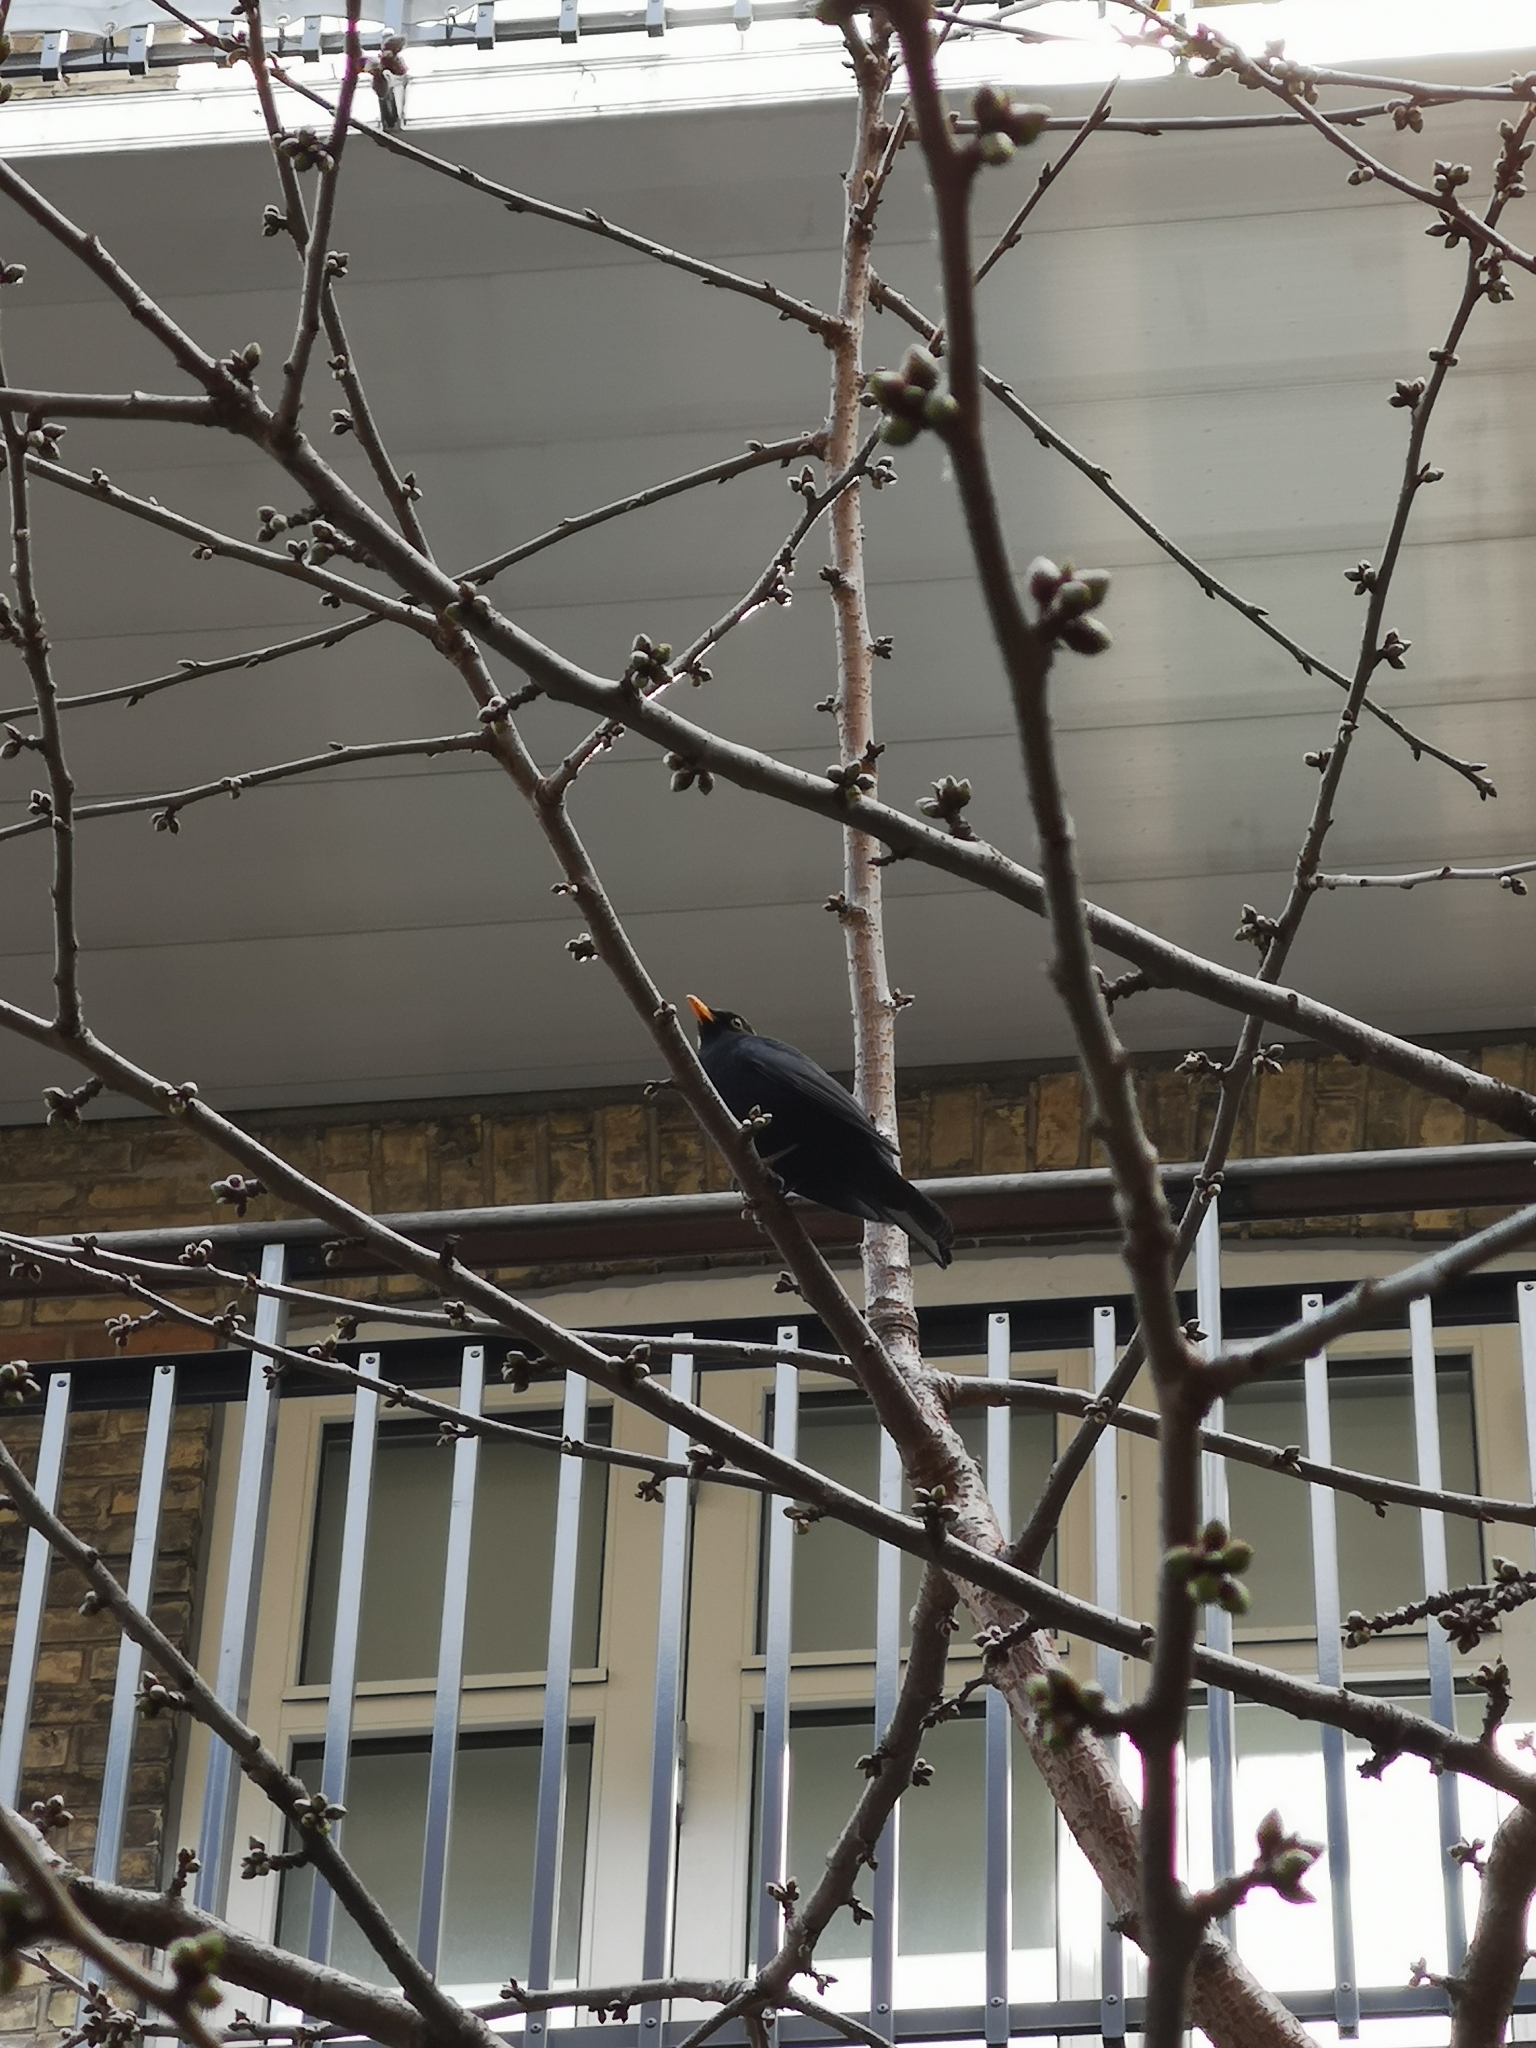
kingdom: Animalia
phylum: Chordata
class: Aves
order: Passeriformes
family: Turdidae
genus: Turdus
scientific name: Turdus merula
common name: Common blackbird
